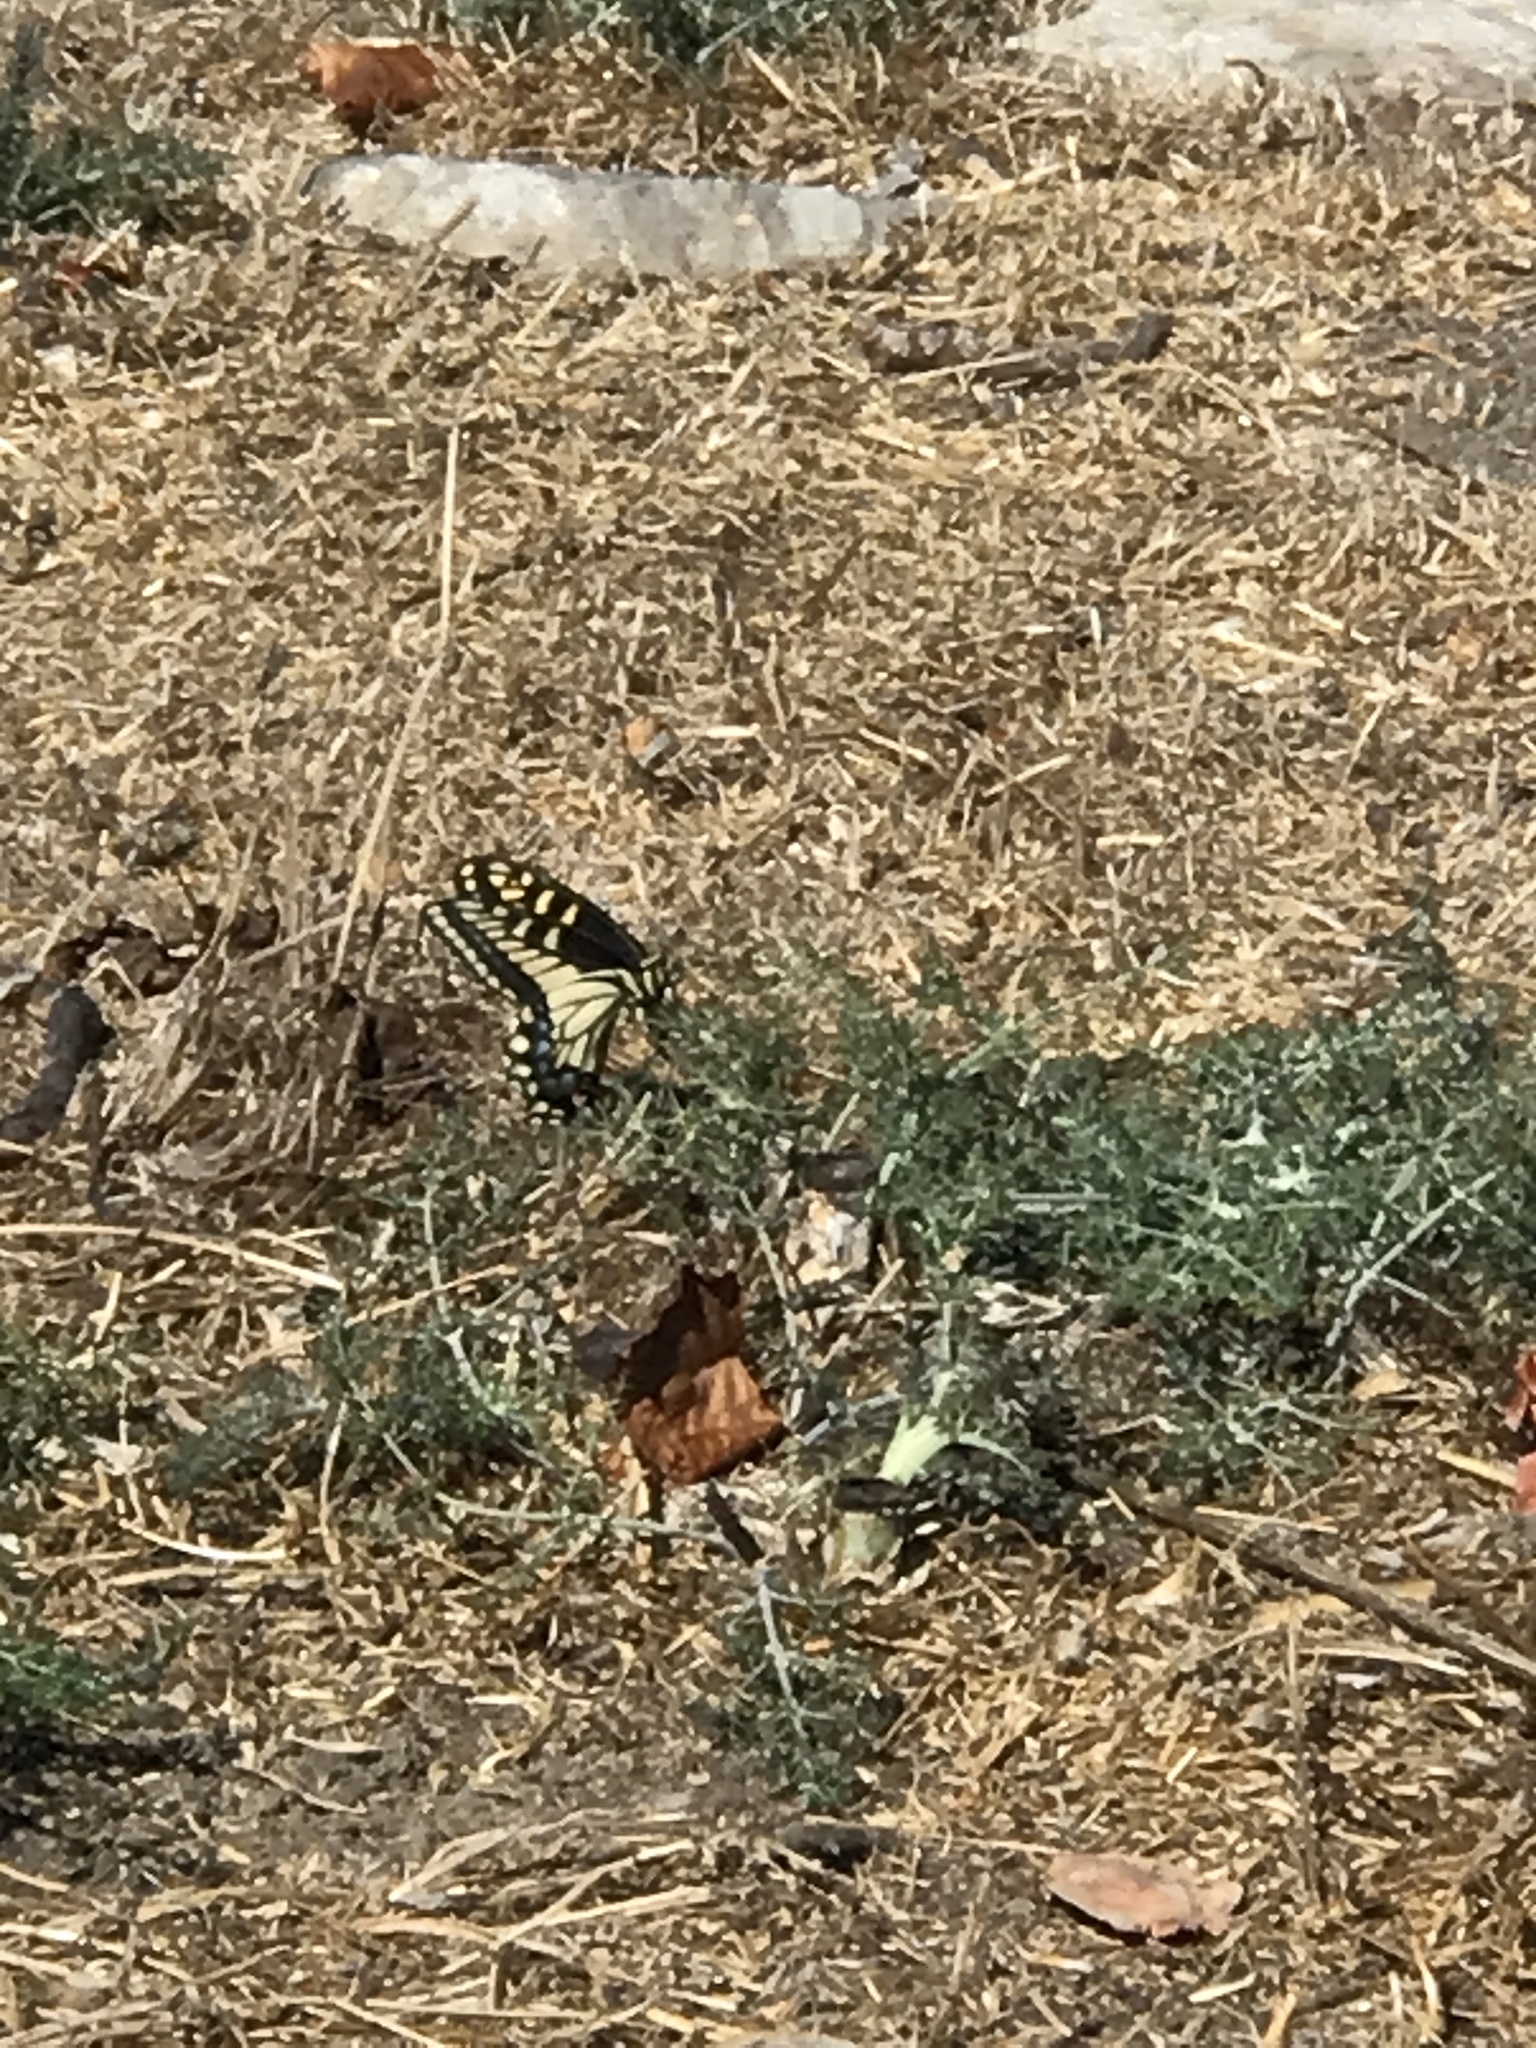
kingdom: Animalia
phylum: Arthropoda
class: Insecta
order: Lepidoptera
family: Papilionidae
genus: Papilio
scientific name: Papilio zelicaon
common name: Anise swallowtail
